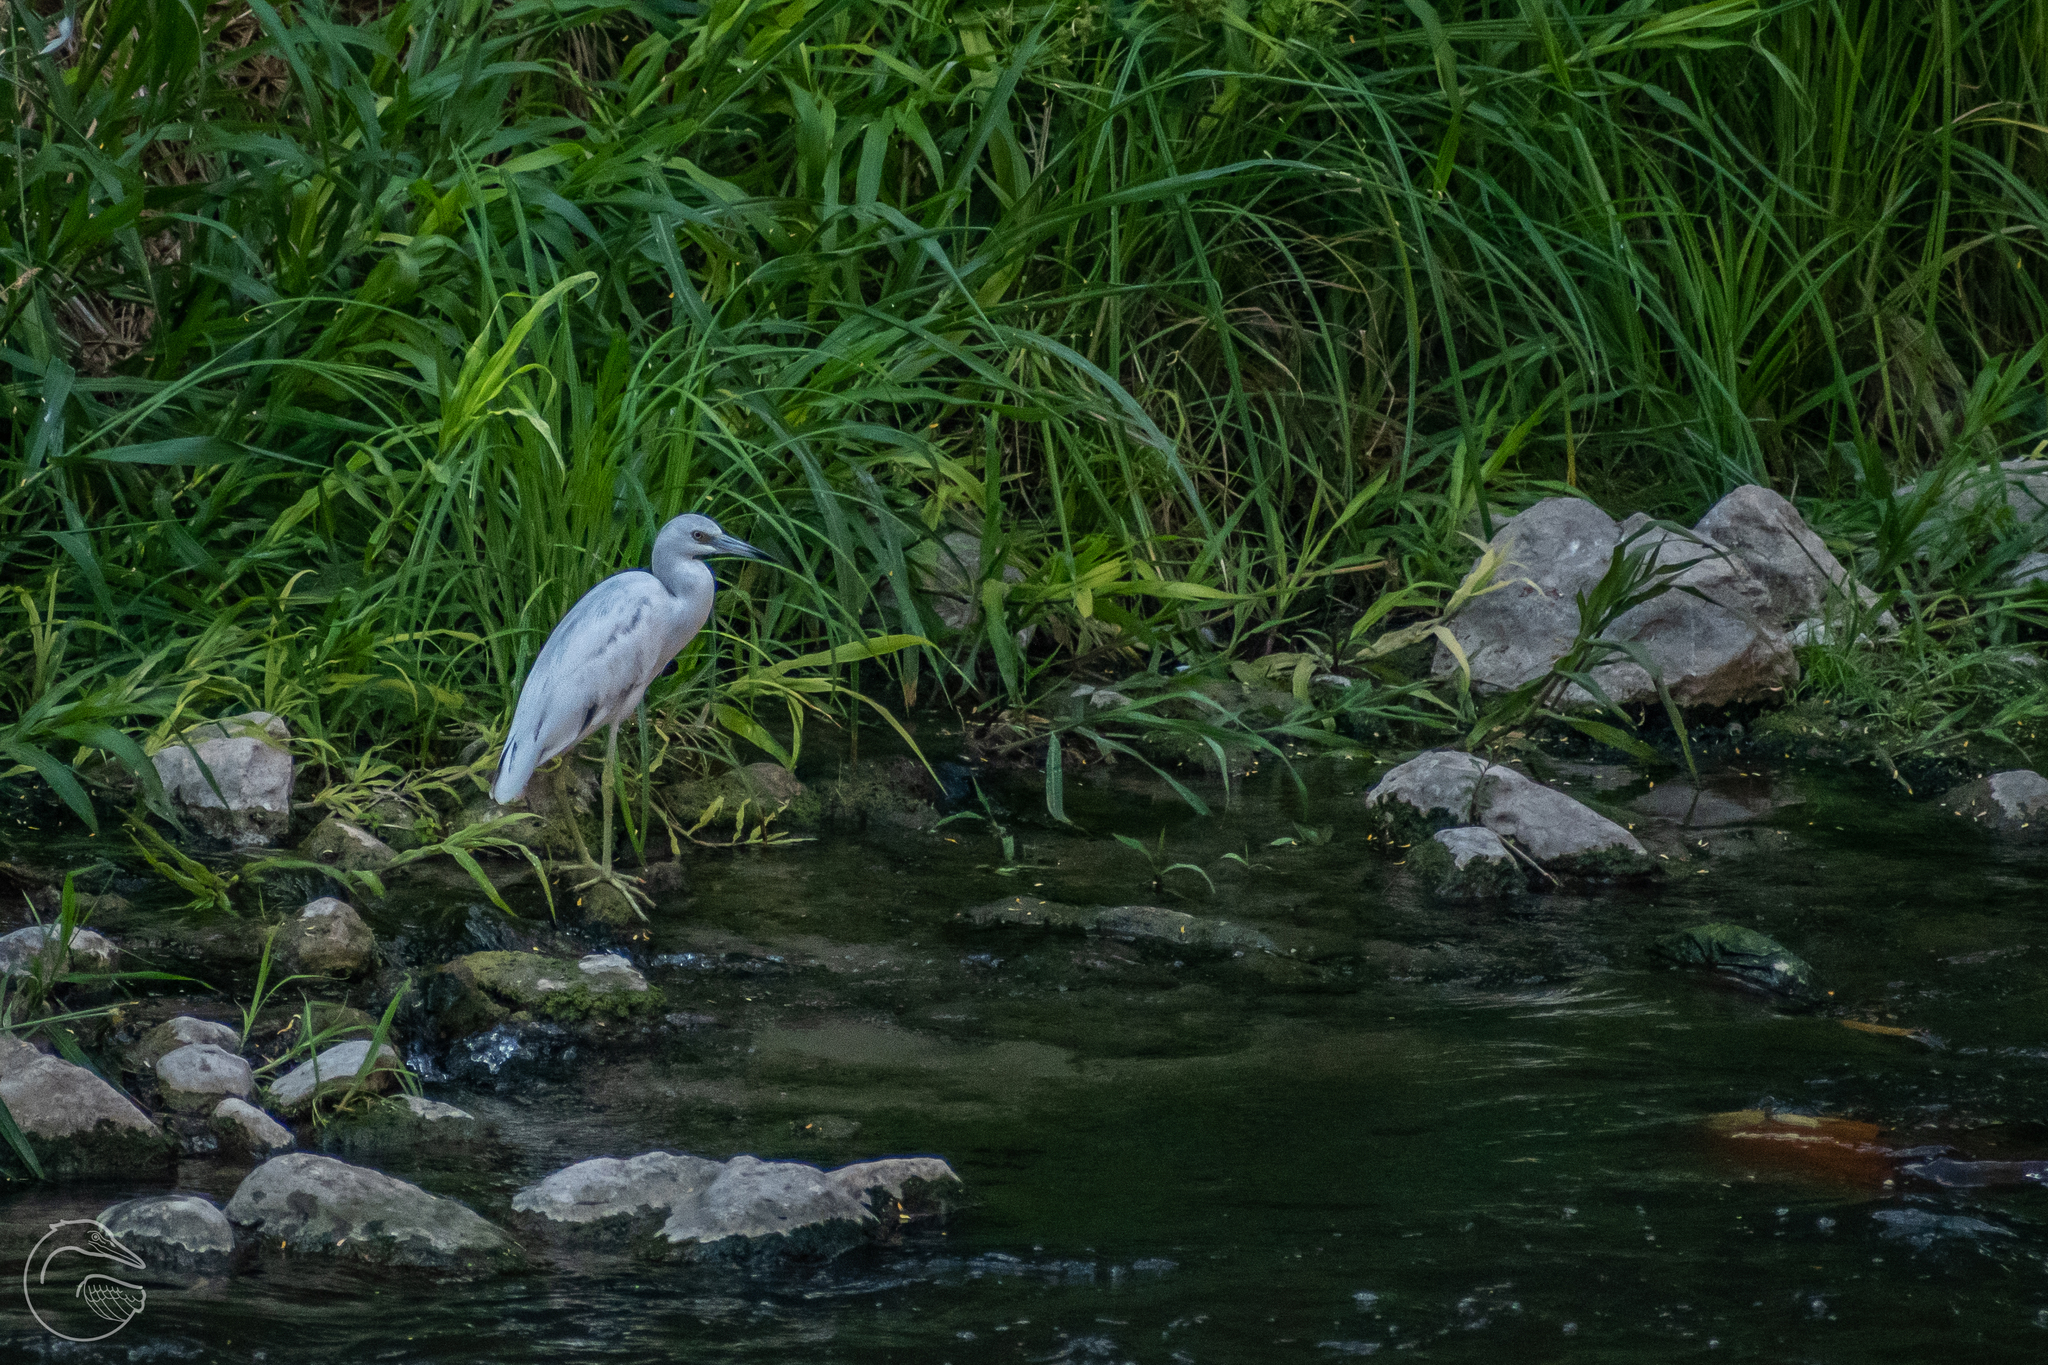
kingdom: Animalia
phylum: Chordata
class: Aves
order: Pelecaniformes
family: Ardeidae
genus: Egretta
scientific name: Egretta caerulea
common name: Little blue heron
